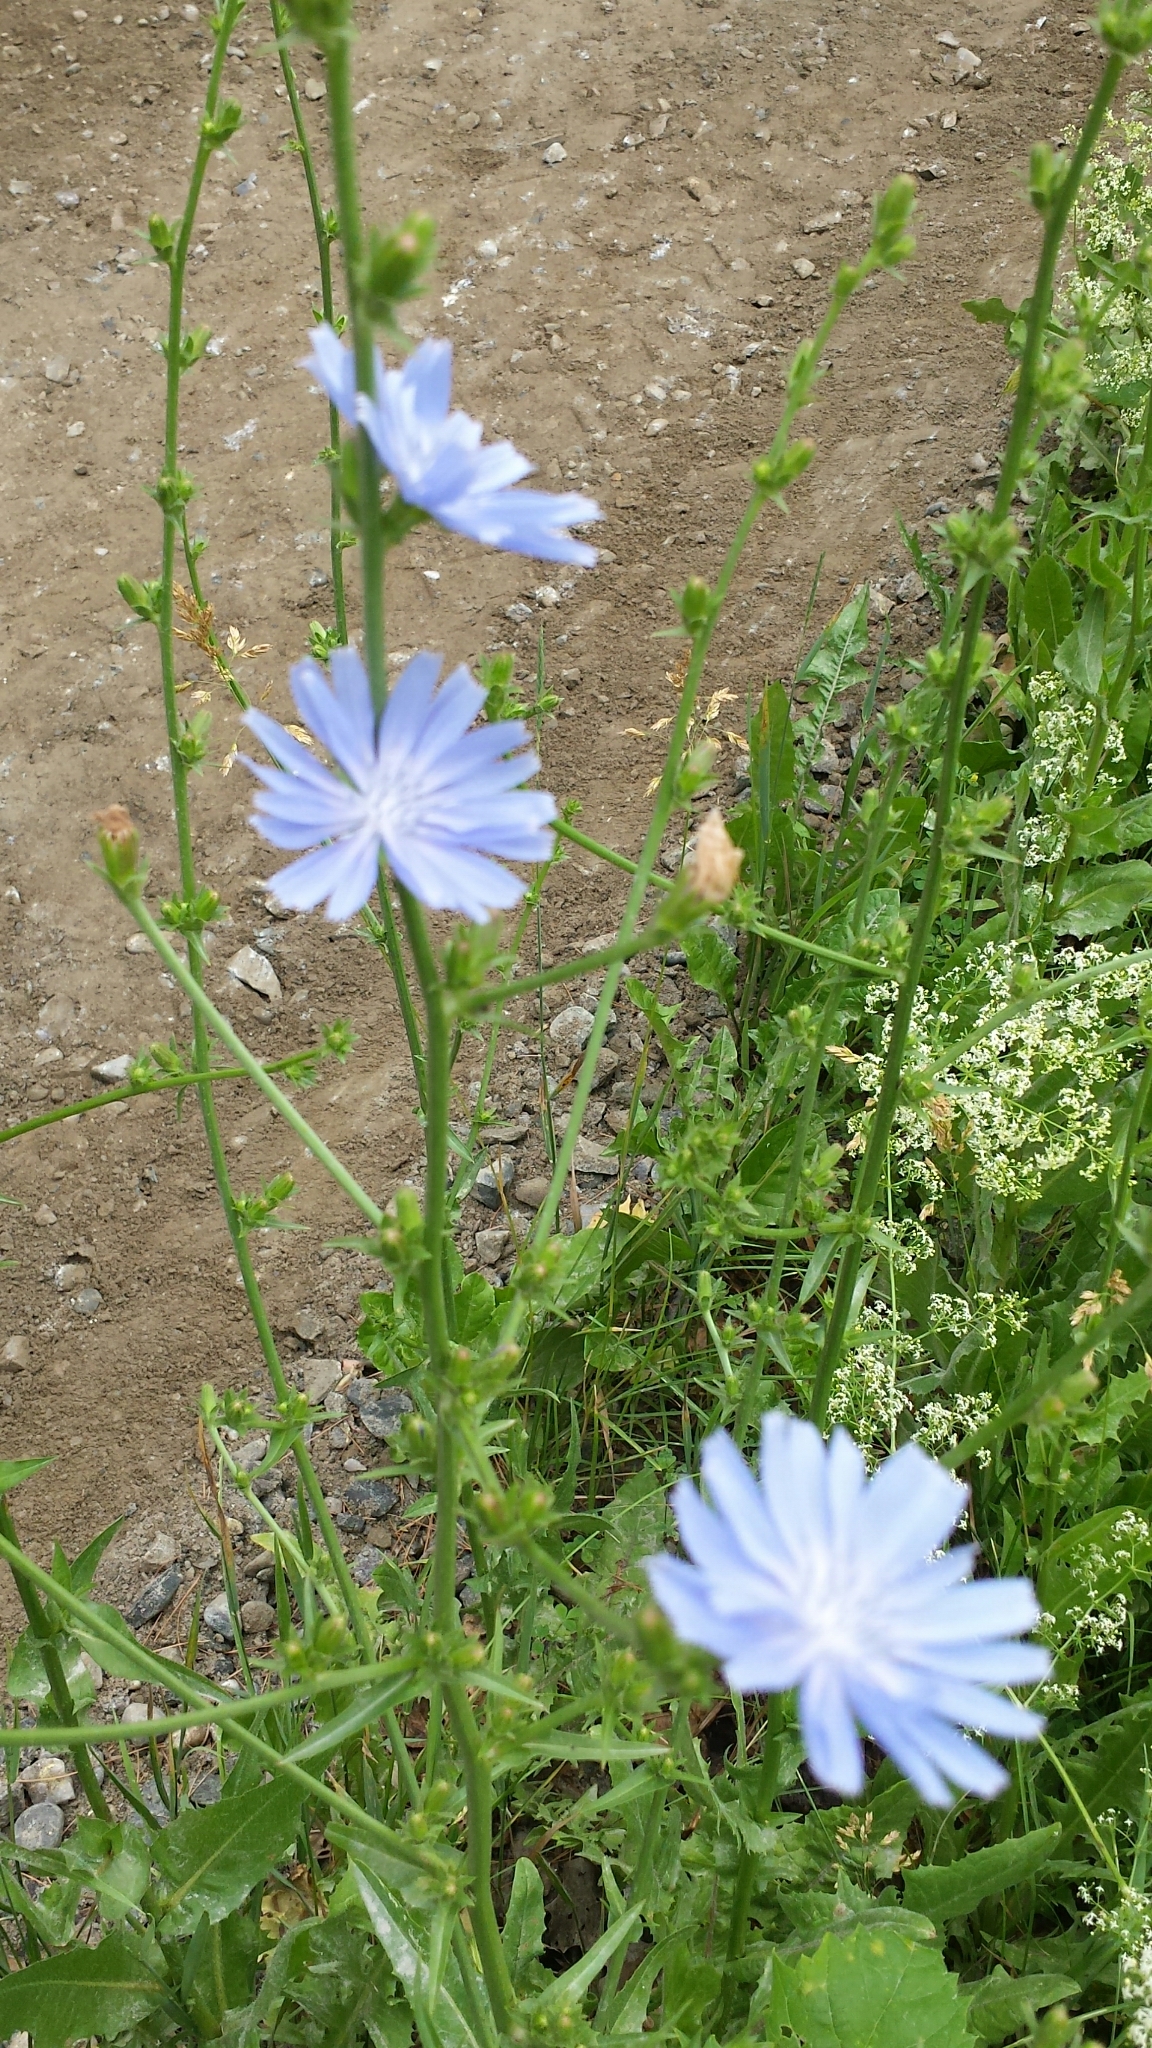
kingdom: Plantae
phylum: Tracheophyta
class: Magnoliopsida
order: Asterales
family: Asteraceae
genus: Cichorium
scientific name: Cichorium intybus
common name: Chicory
